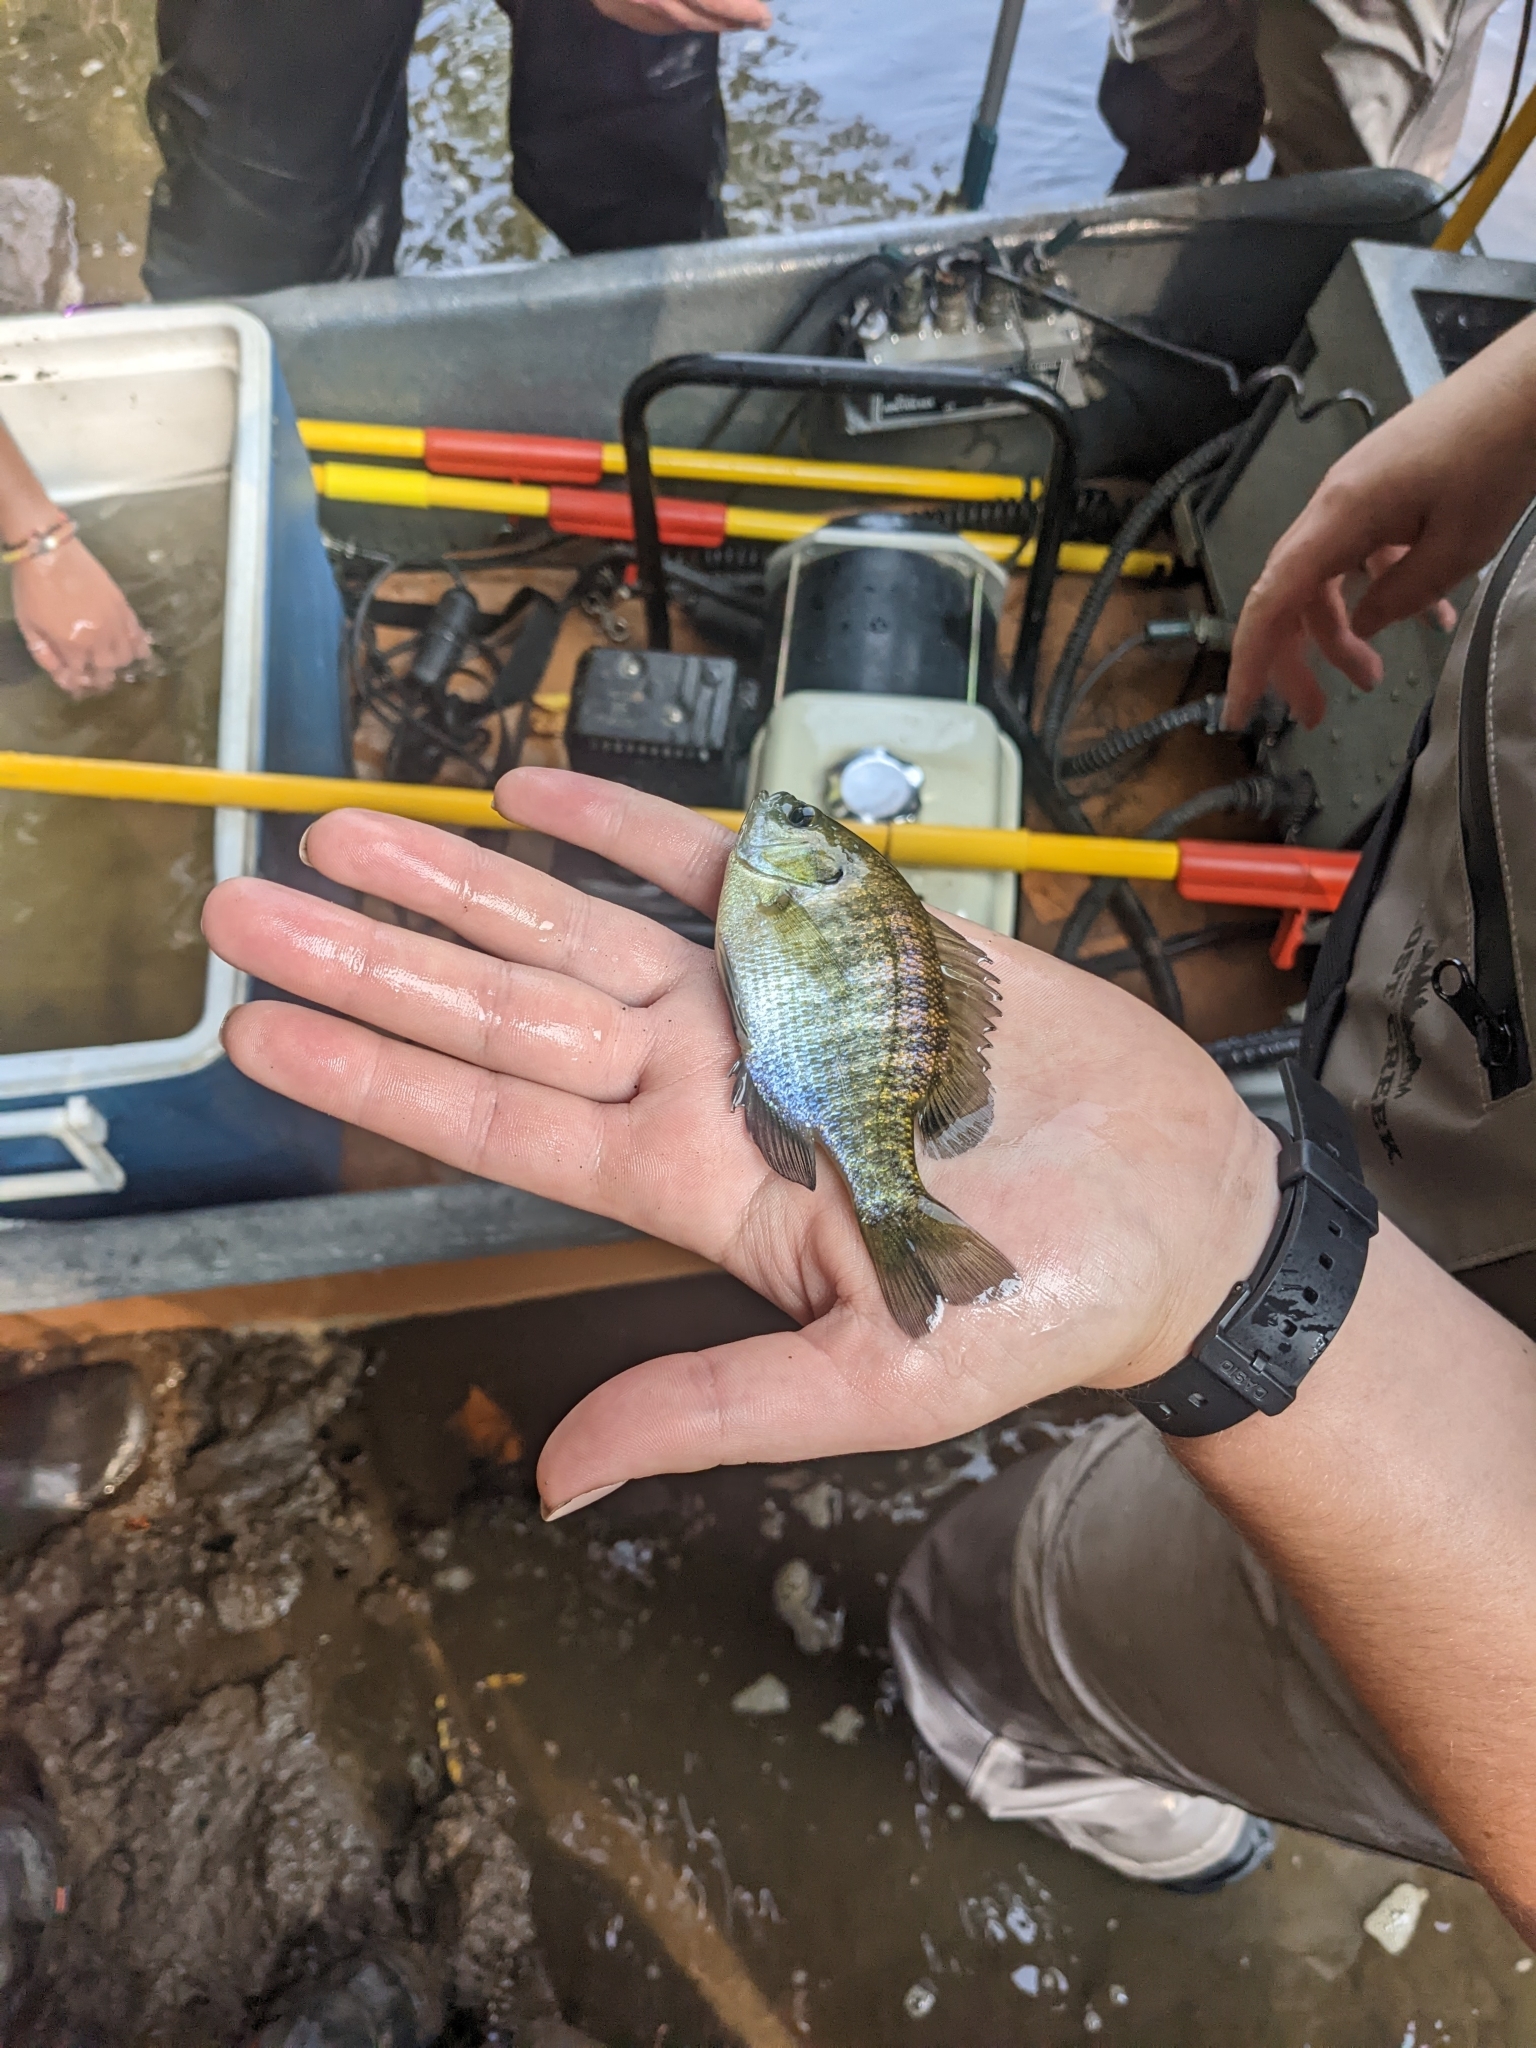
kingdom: Animalia
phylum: Chordata
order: Perciformes
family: Centrarchidae
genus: Lepomis
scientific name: Lepomis macrochirus
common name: Bluegill
